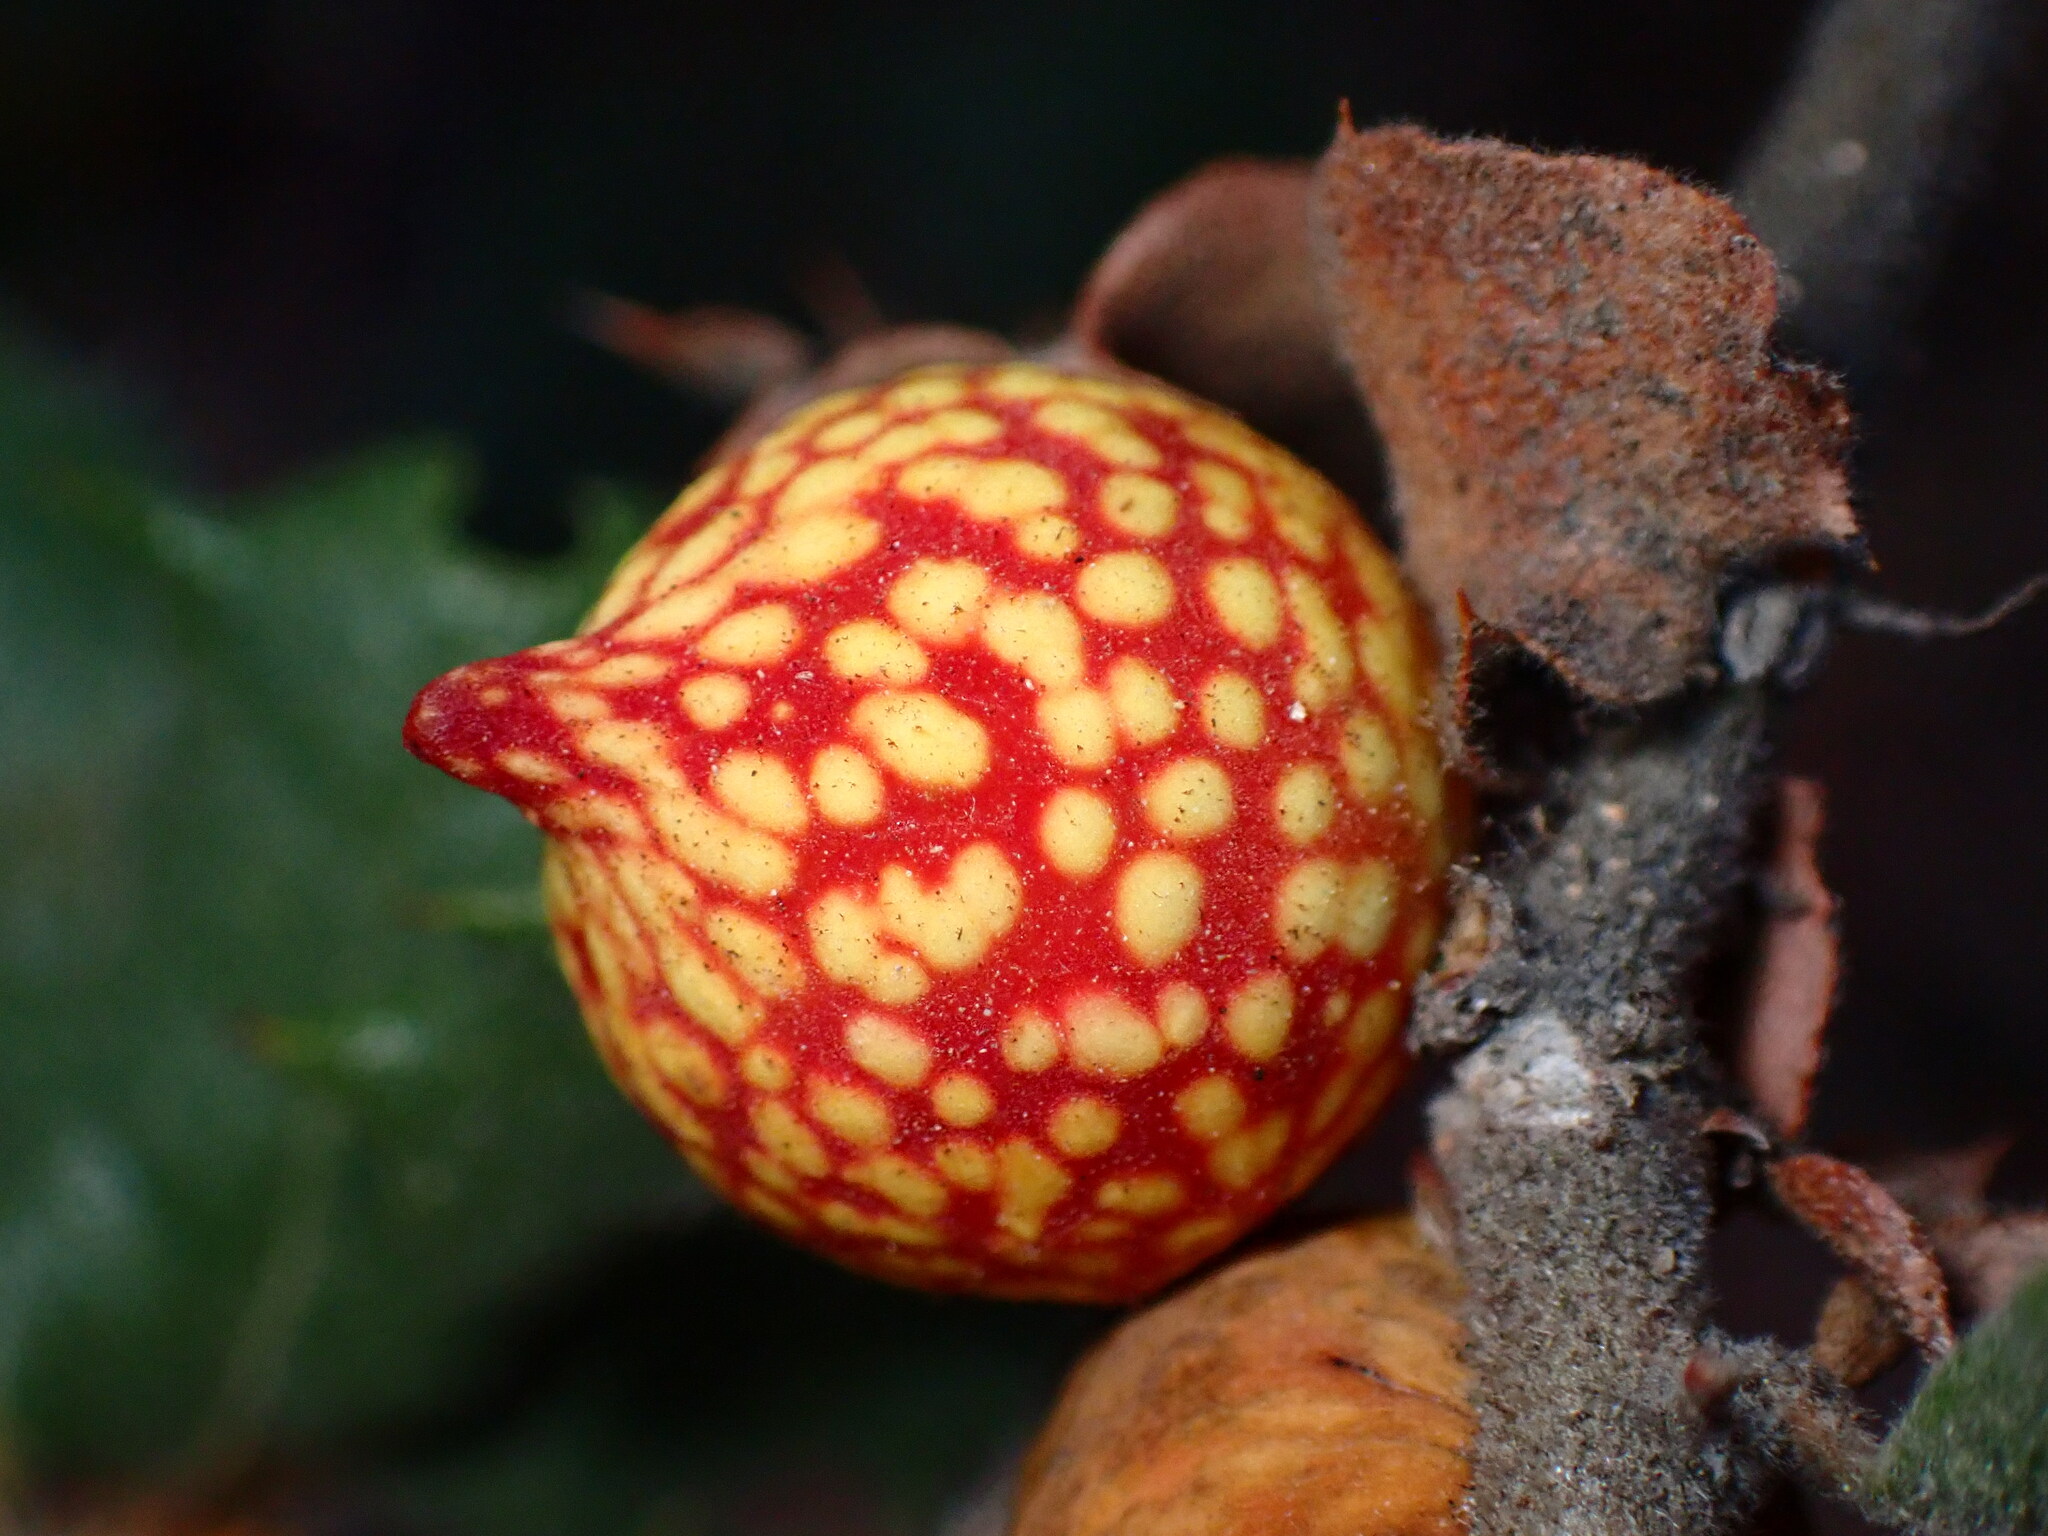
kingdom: Animalia
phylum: Arthropoda
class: Insecta
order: Hymenoptera
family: Cynipidae
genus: Burnettweldia
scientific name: Burnettweldia
